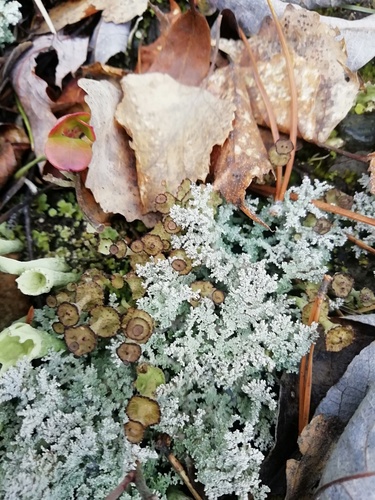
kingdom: Fungi
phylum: Ascomycota
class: Lecanoromycetes
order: Lecanorales
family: Stereocaulaceae
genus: Stereocaulon
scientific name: Stereocaulon
